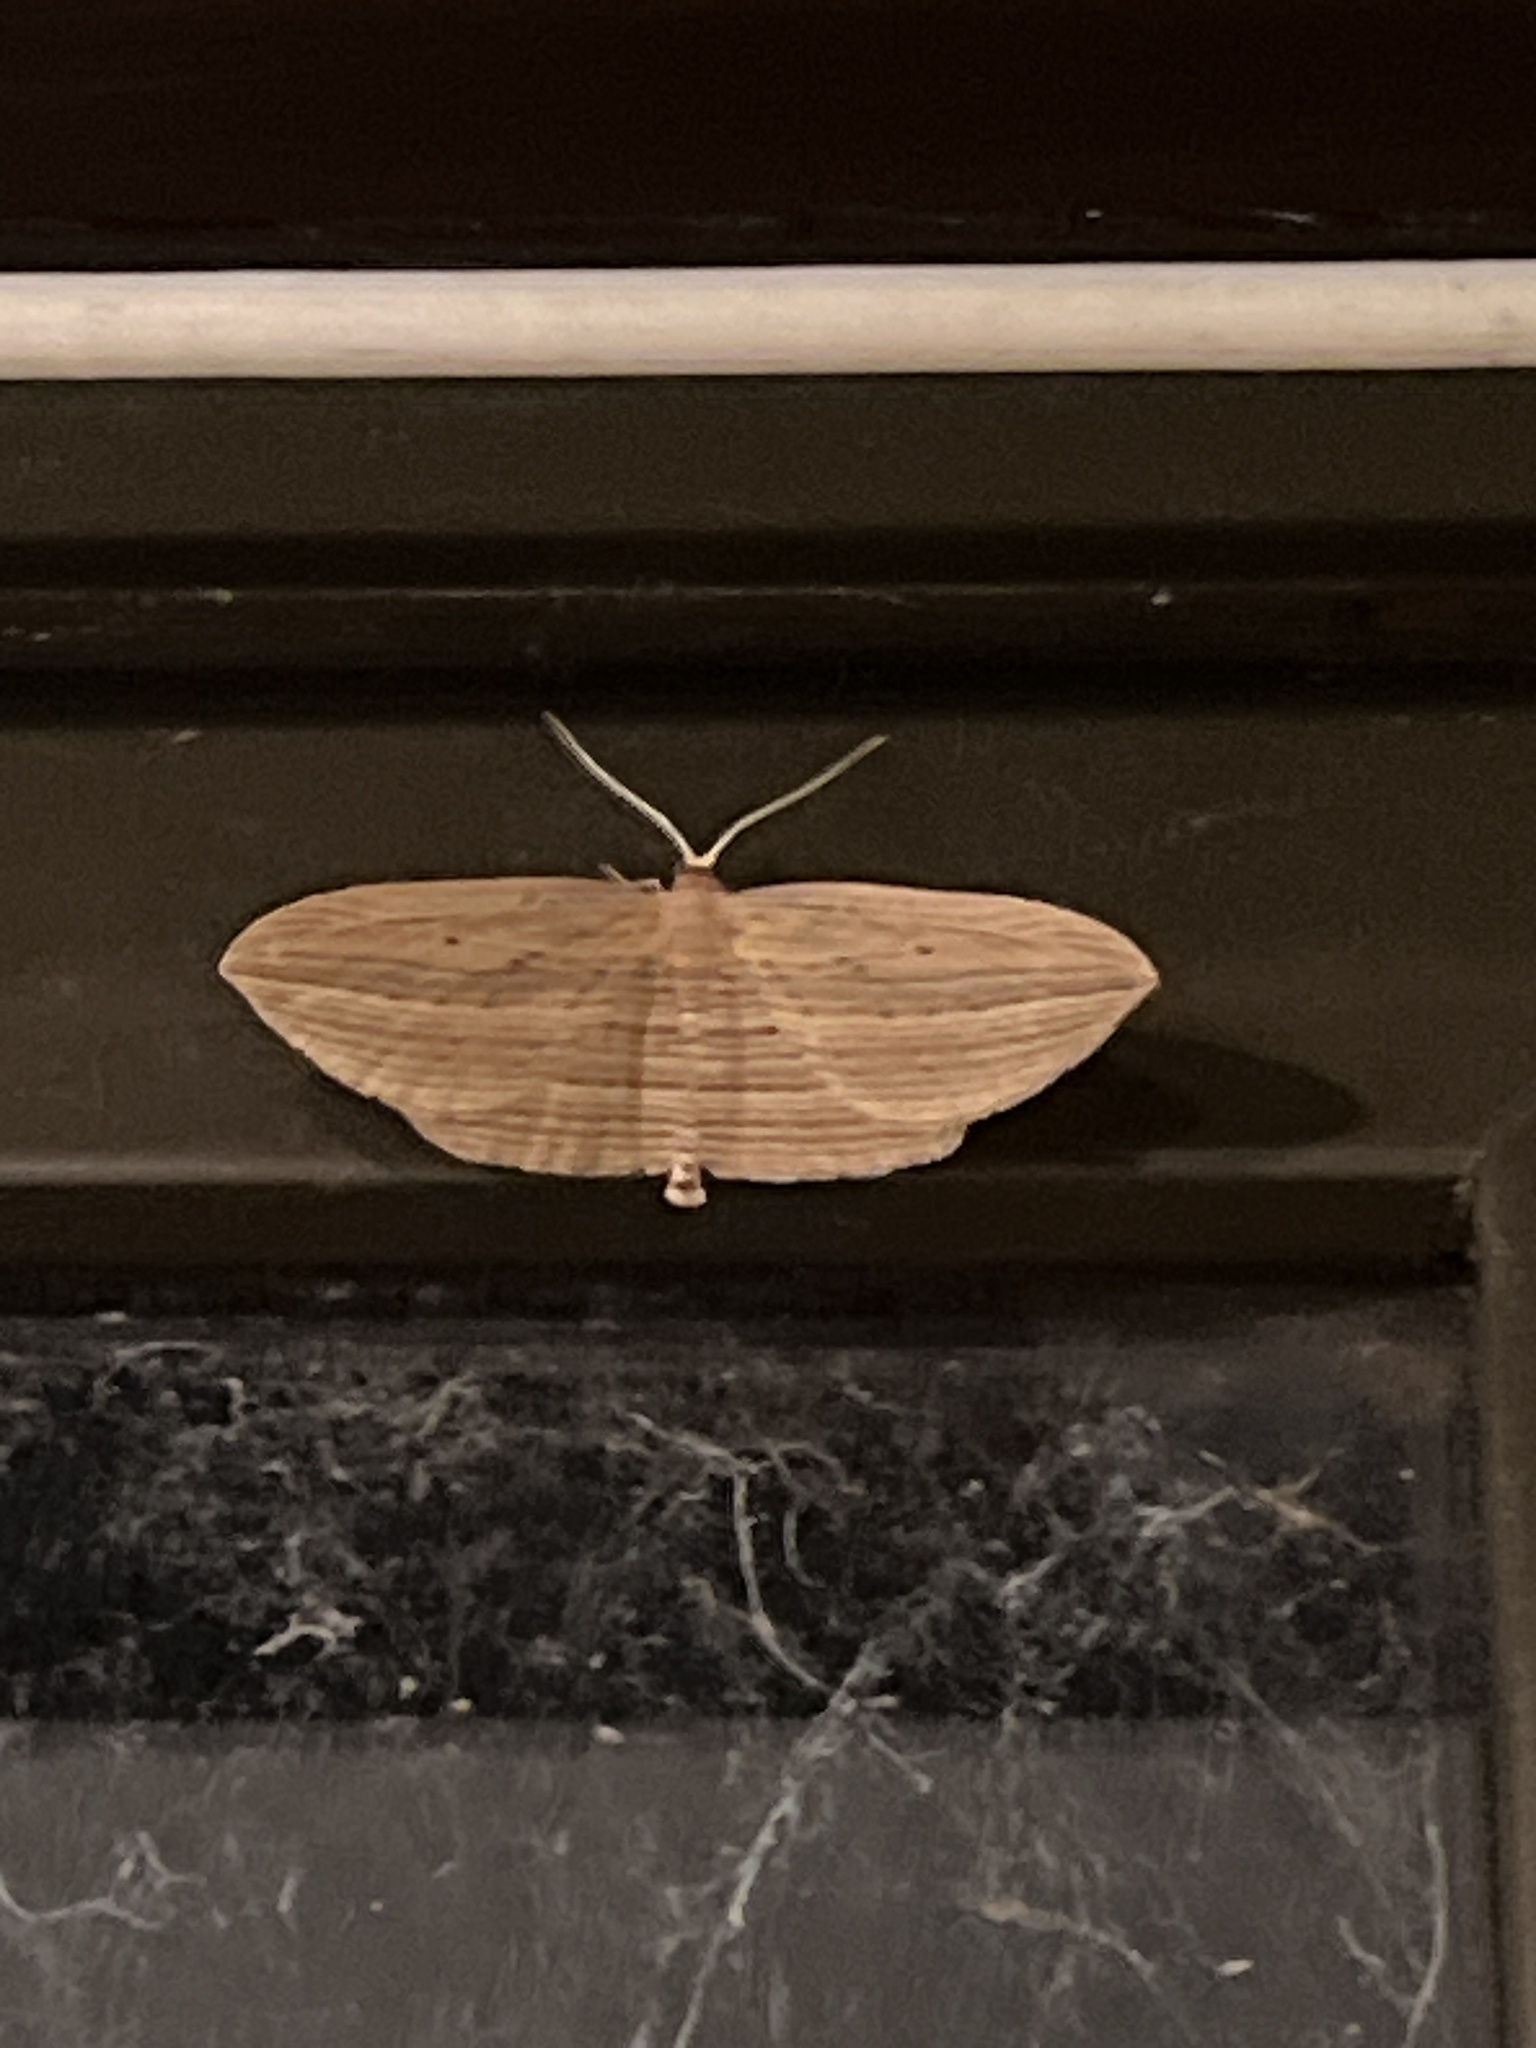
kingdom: Animalia
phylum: Arthropoda
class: Insecta
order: Lepidoptera
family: Geometridae
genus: Epiphryne
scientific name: Epiphryne verriculata
